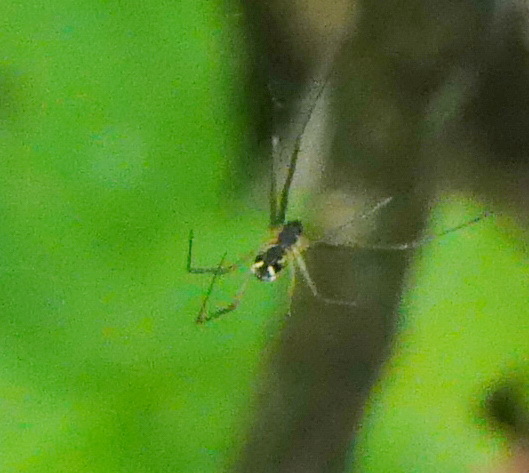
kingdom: Animalia
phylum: Arthropoda
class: Arachnida
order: Araneae
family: Linyphiidae
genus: Neriene
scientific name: Neriene radiata
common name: Filmy dome spider
